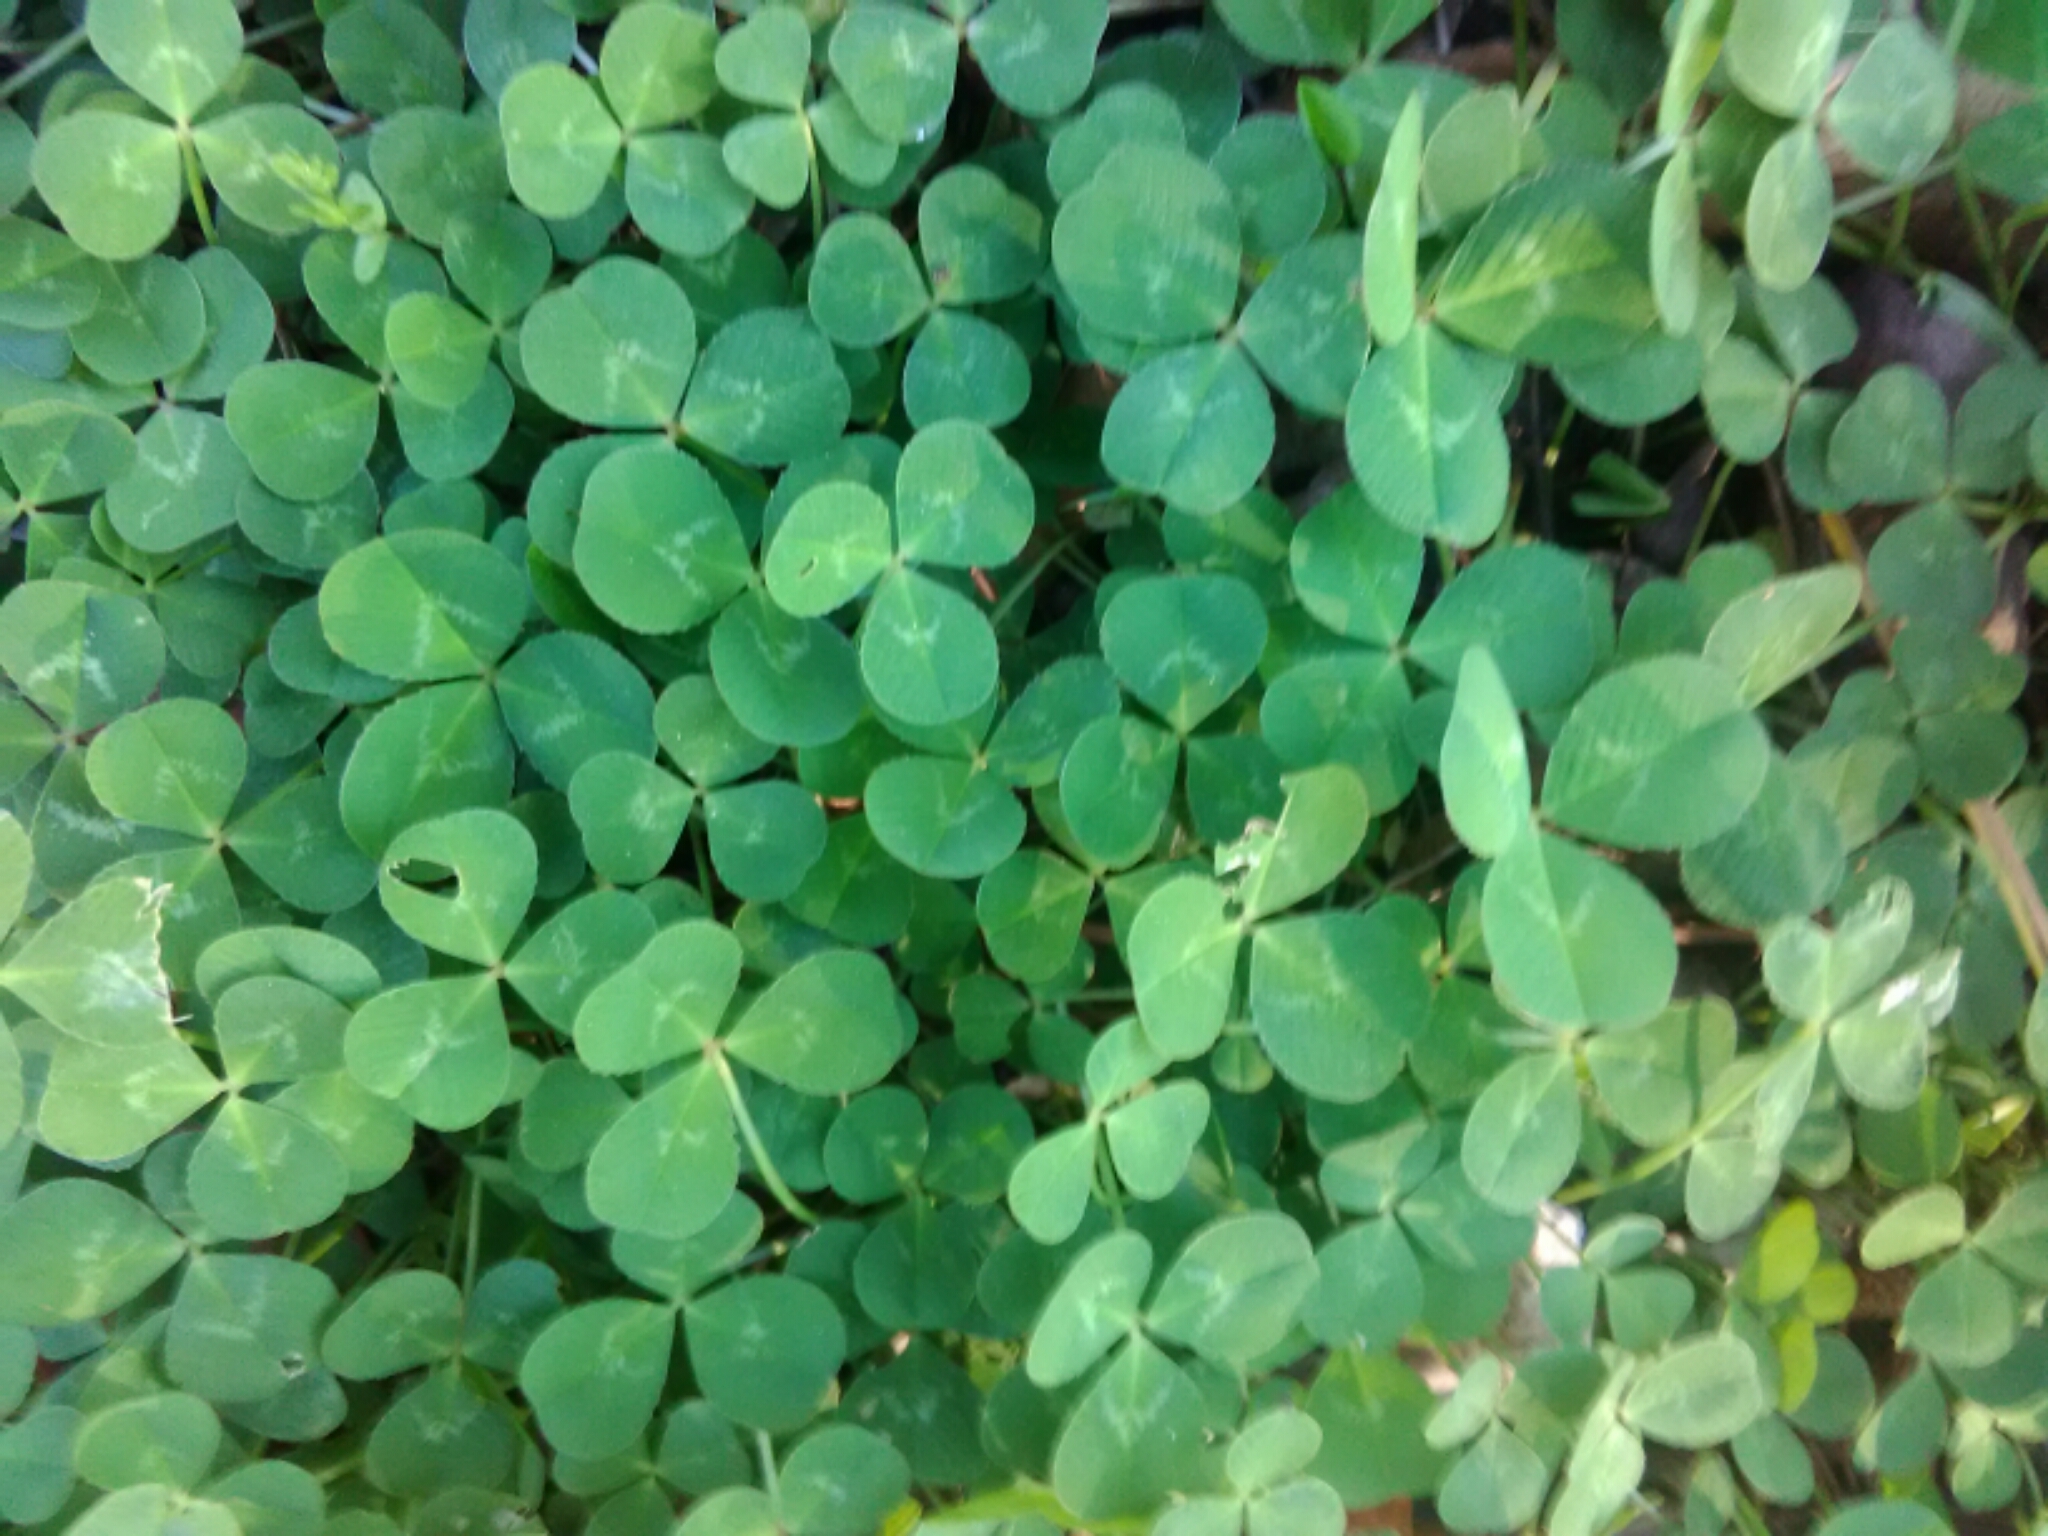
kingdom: Plantae
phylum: Tracheophyta
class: Magnoliopsida
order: Fabales
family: Fabaceae
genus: Trifolium
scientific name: Trifolium repens
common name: White clover
